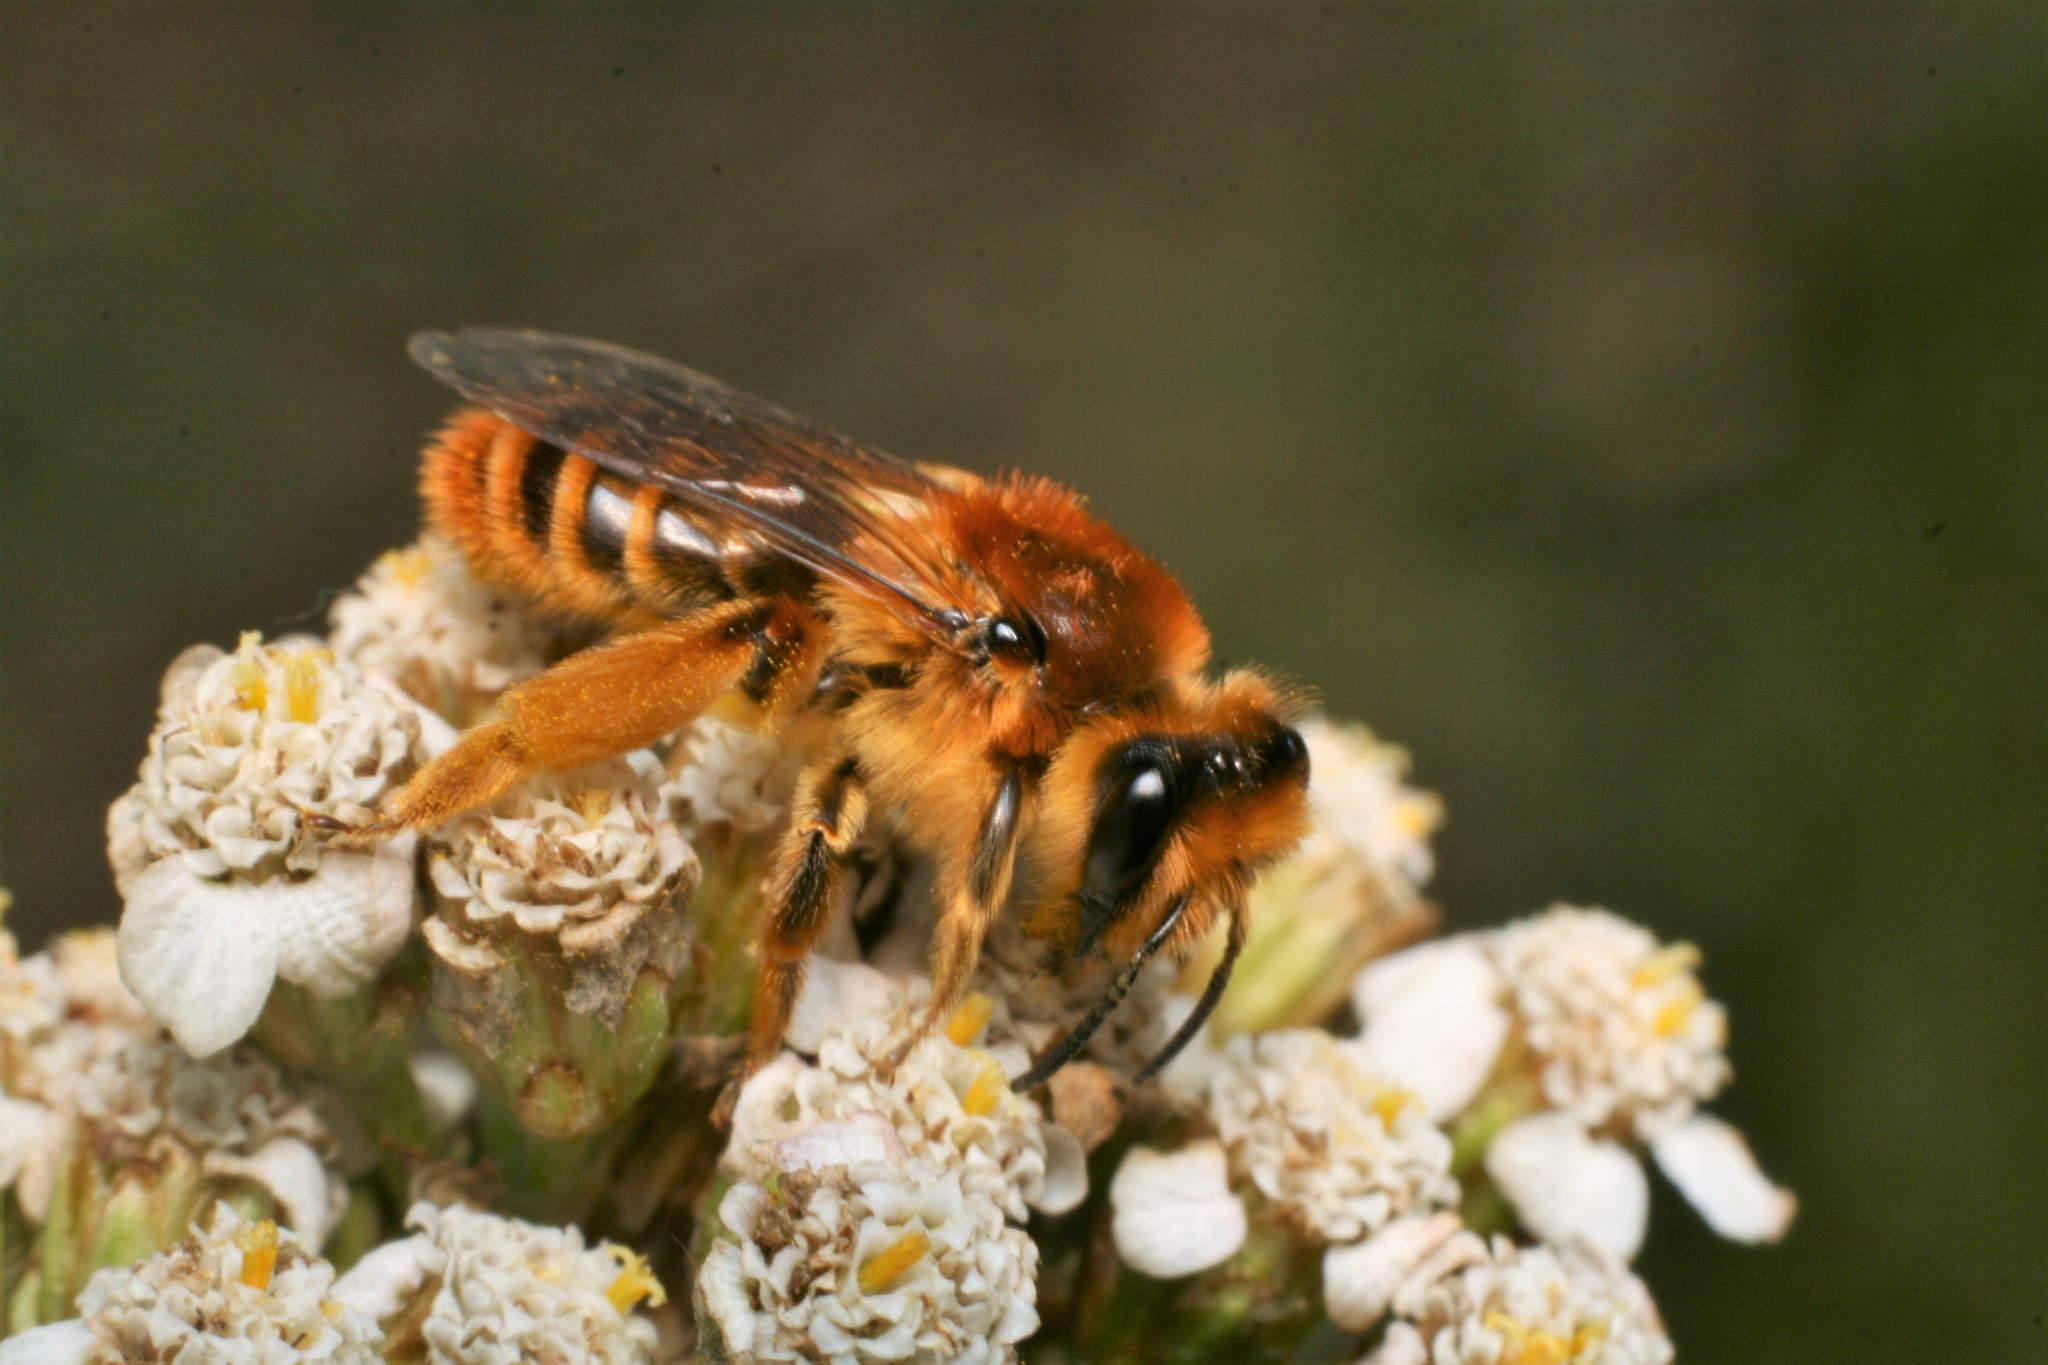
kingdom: Animalia
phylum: Arthropoda
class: Insecta
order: Hymenoptera
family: Colletidae
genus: Leioproctus
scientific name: Leioproctus fulvescens
